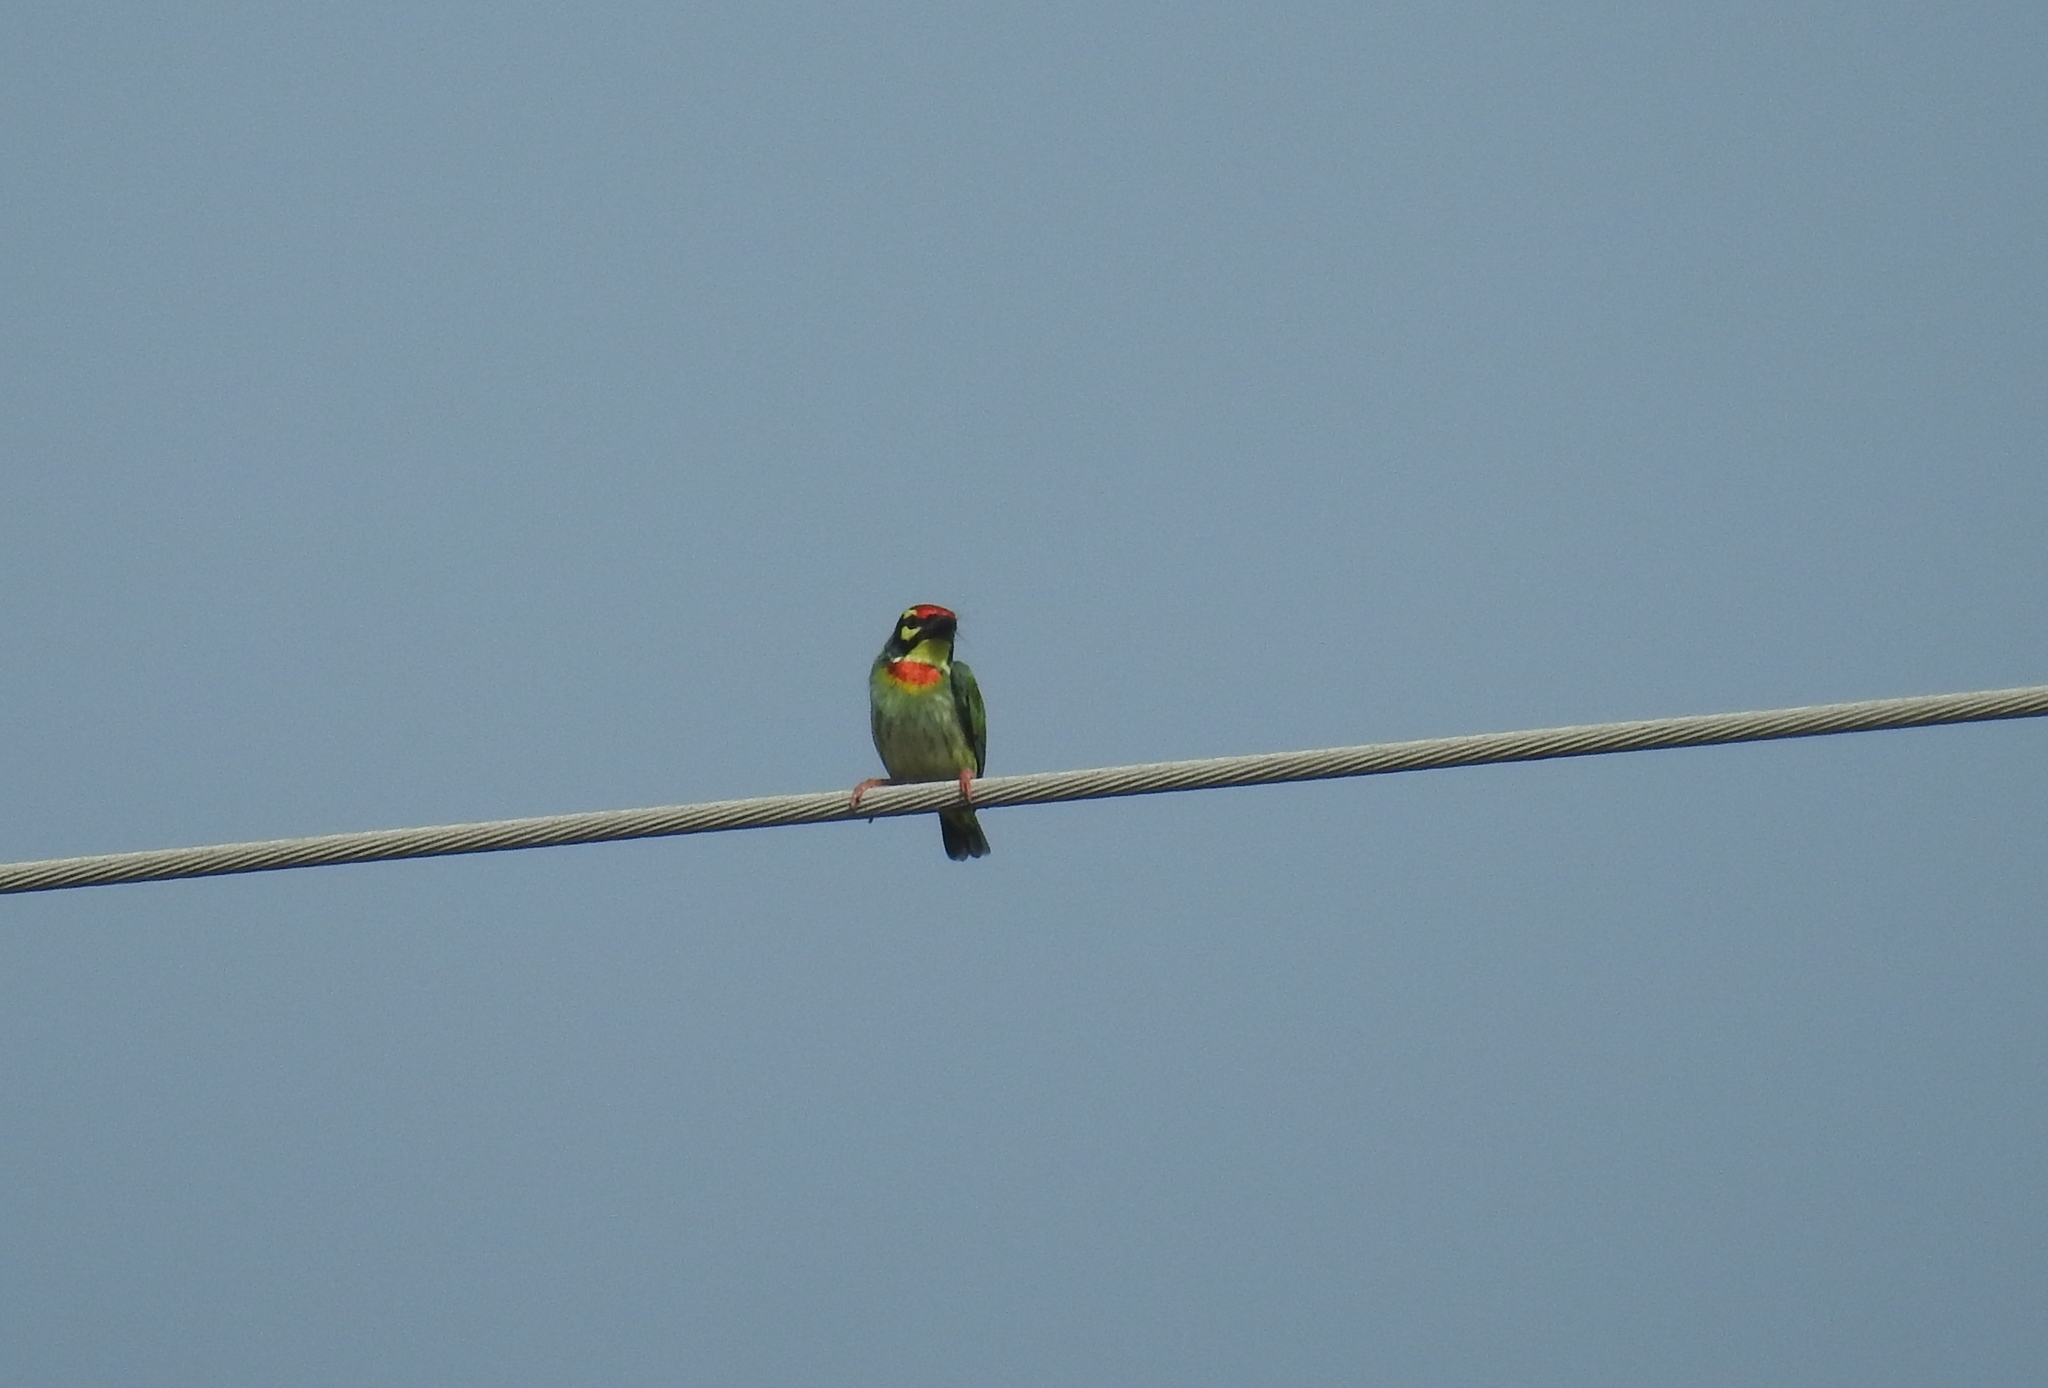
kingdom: Animalia
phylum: Chordata
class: Aves
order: Piciformes
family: Megalaimidae
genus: Psilopogon
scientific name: Psilopogon haemacephalus
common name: Coppersmith barbet
